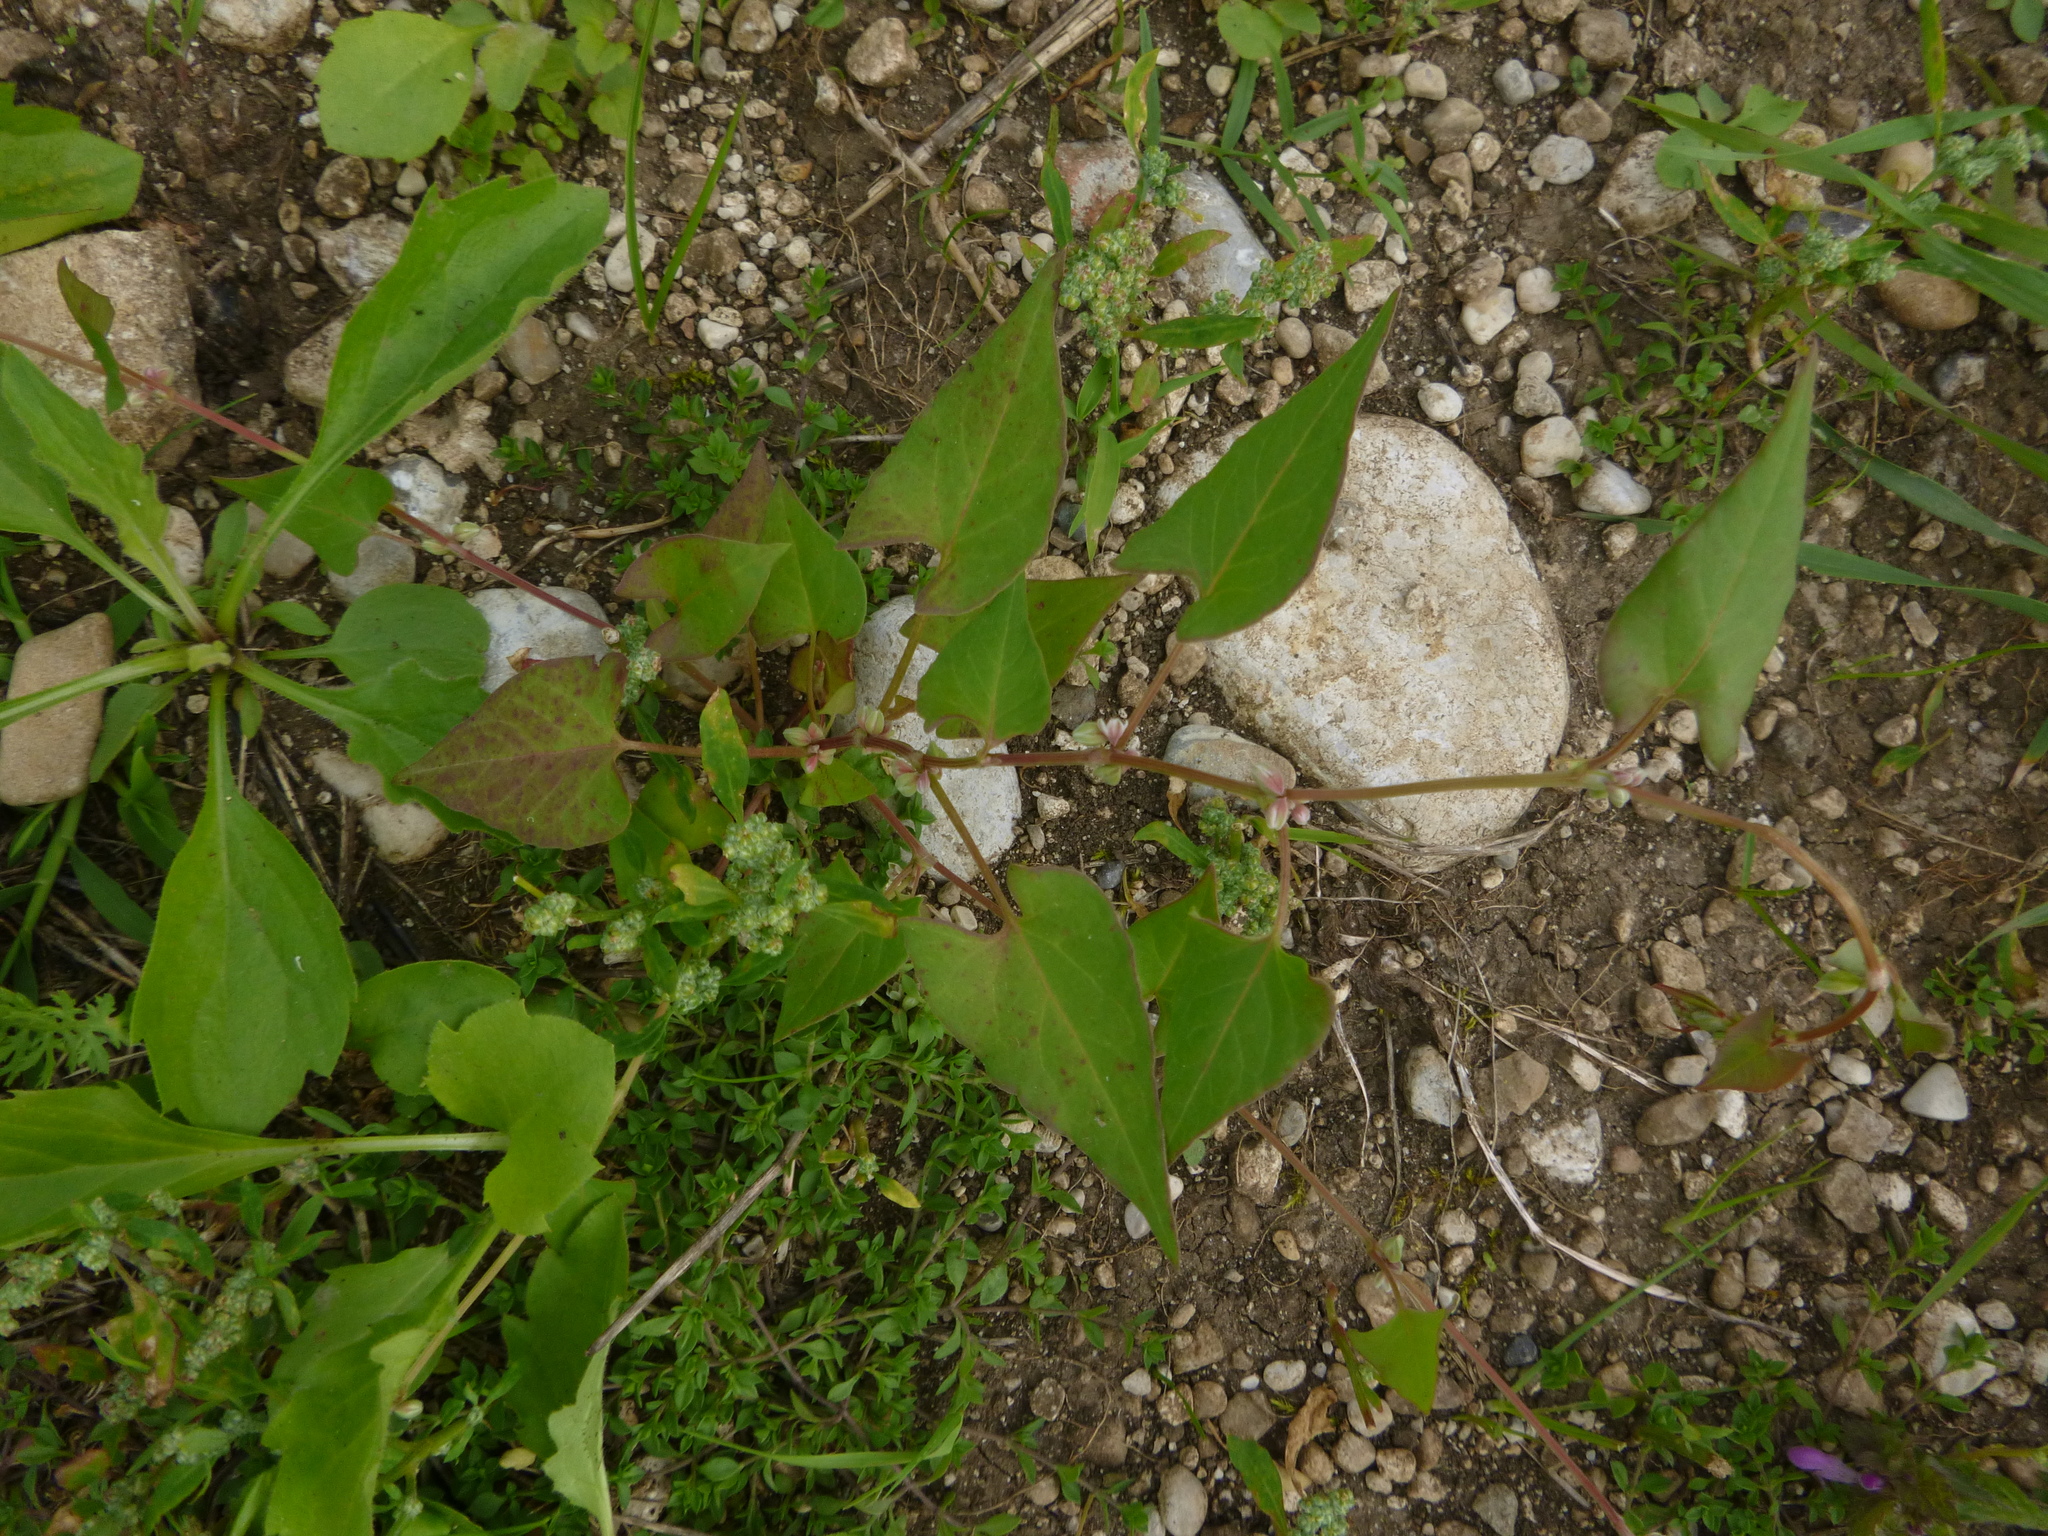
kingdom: Plantae
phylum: Tracheophyta
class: Magnoliopsida
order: Caryophyllales
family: Polygonaceae
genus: Fallopia
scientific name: Fallopia convolvulus
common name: Black bindweed
